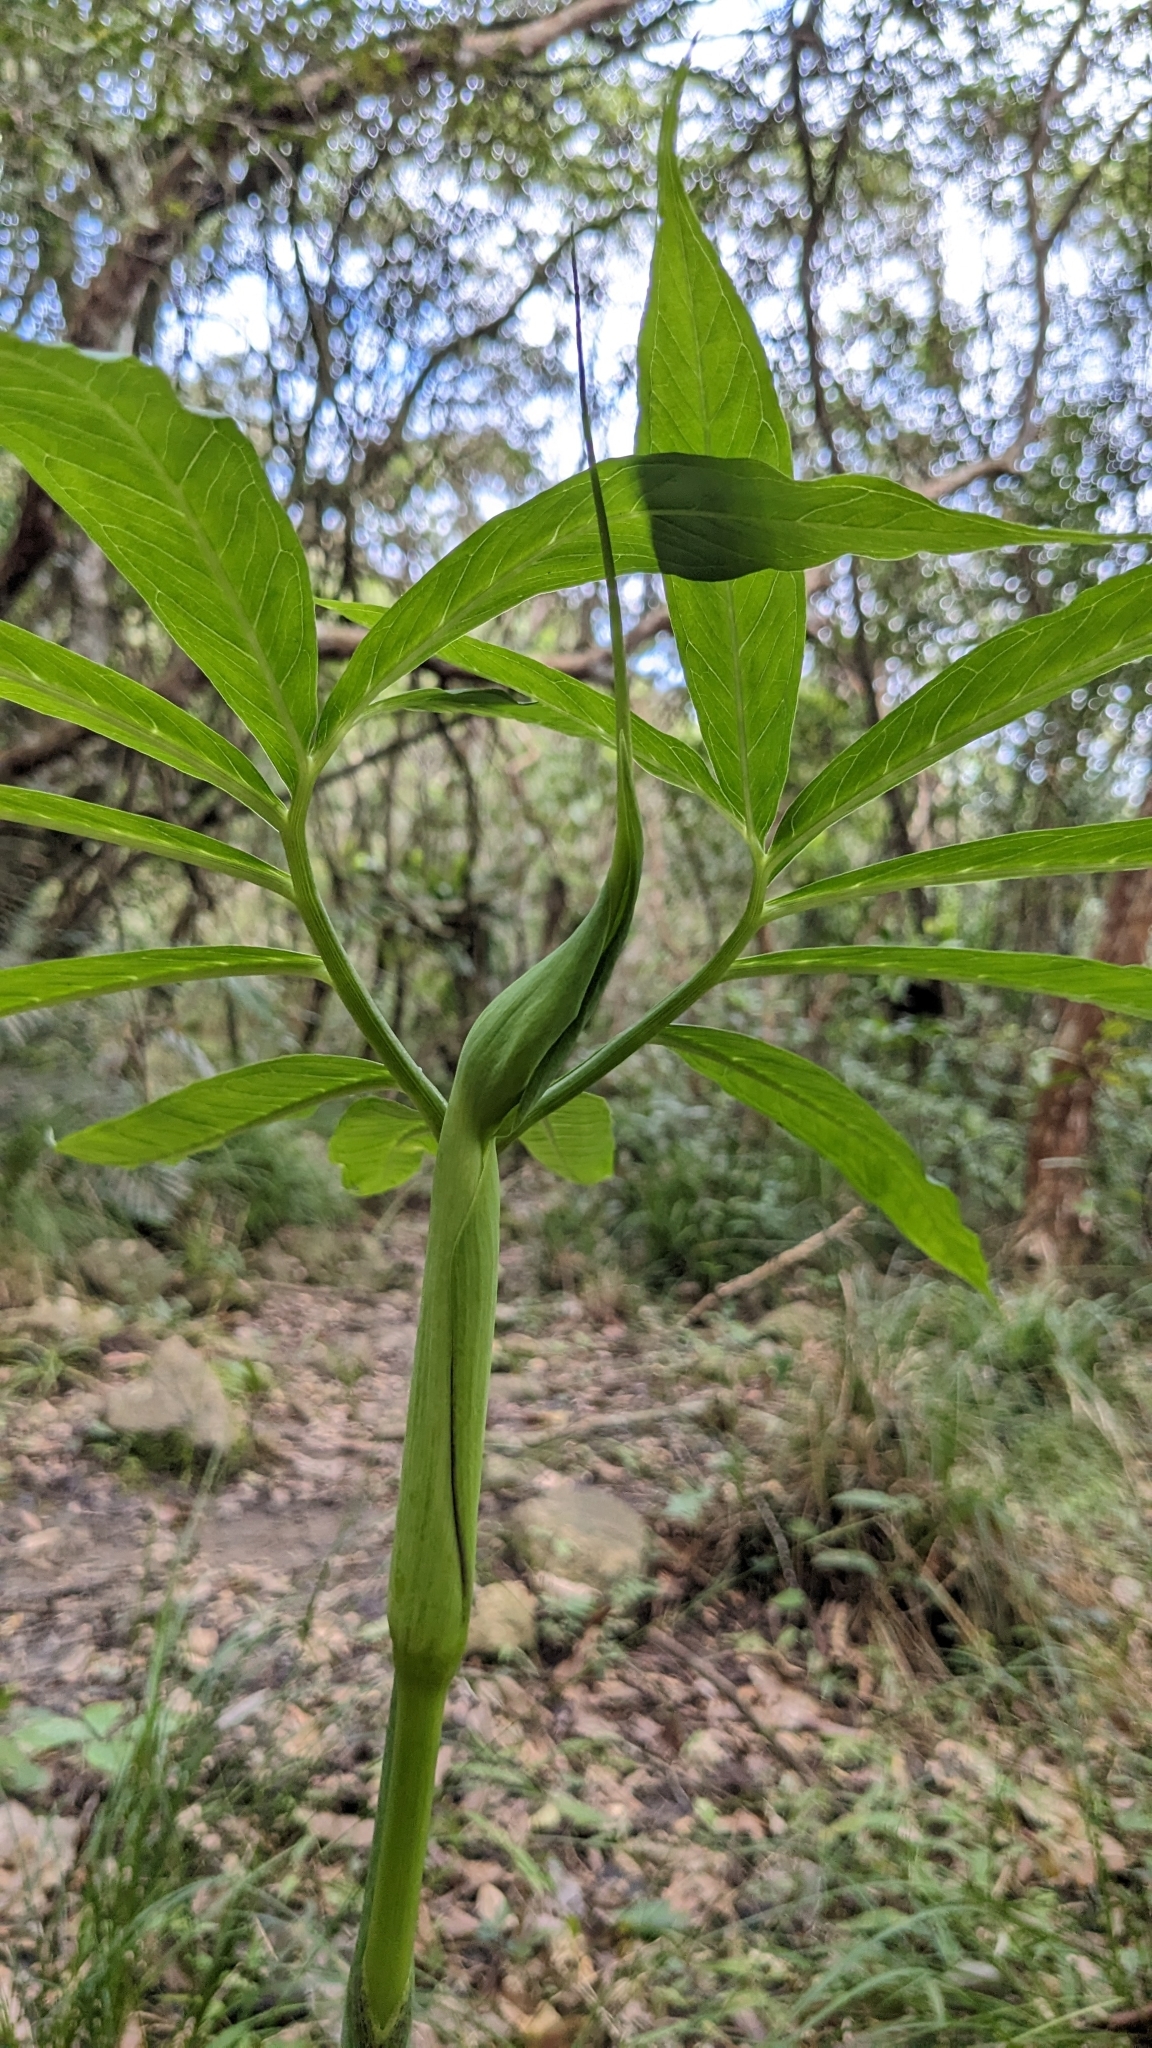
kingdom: Plantae
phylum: Tracheophyta
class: Liliopsida
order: Alismatales
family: Araceae
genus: Arisaema
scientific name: Arisaema heterophyllum
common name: Dancing crane cobra lily
